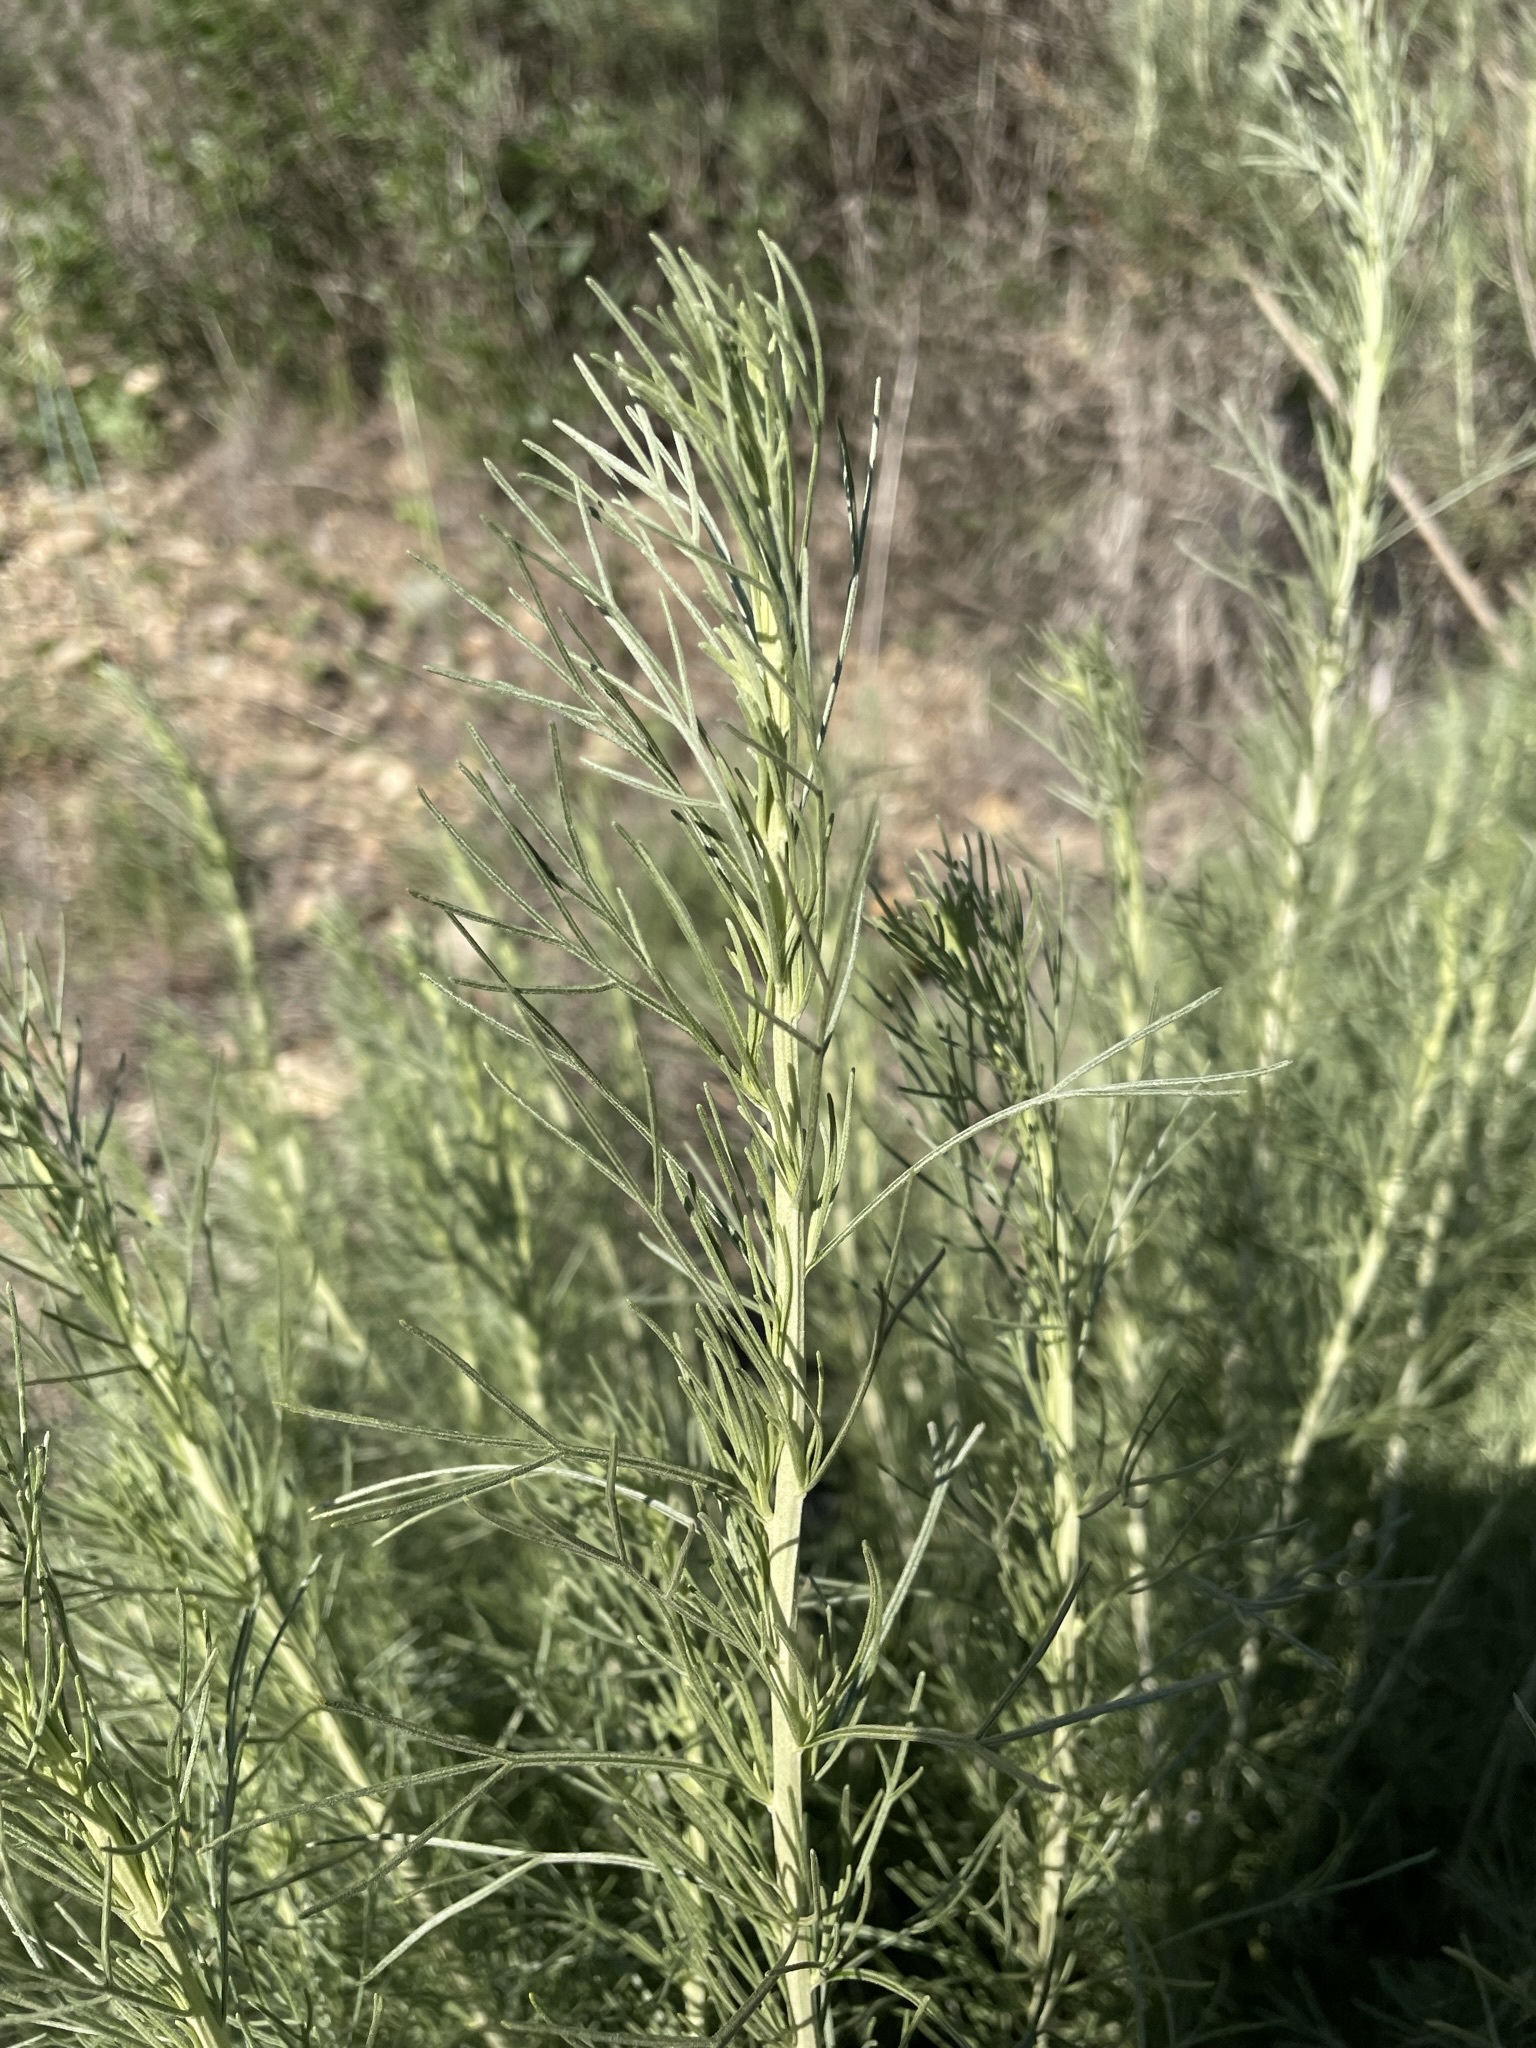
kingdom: Plantae
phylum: Tracheophyta
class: Magnoliopsida
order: Asterales
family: Asteraceae
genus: Artemisia
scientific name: Artemisia californica
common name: California sagebrush
